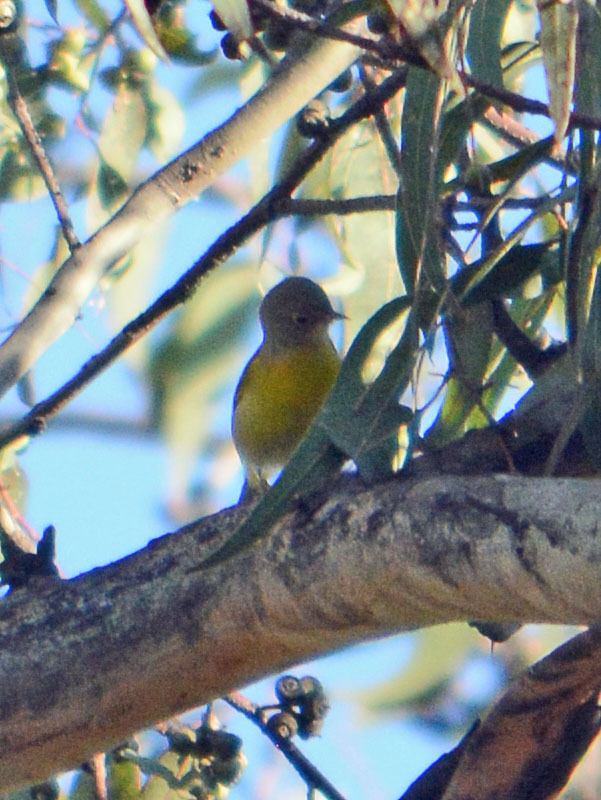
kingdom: Animalia
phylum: Chordata
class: Aves
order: Passeriformes
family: Parulidae
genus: Leiothlypis
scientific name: Leiothlypis ruficapilla
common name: Nashville warbler
